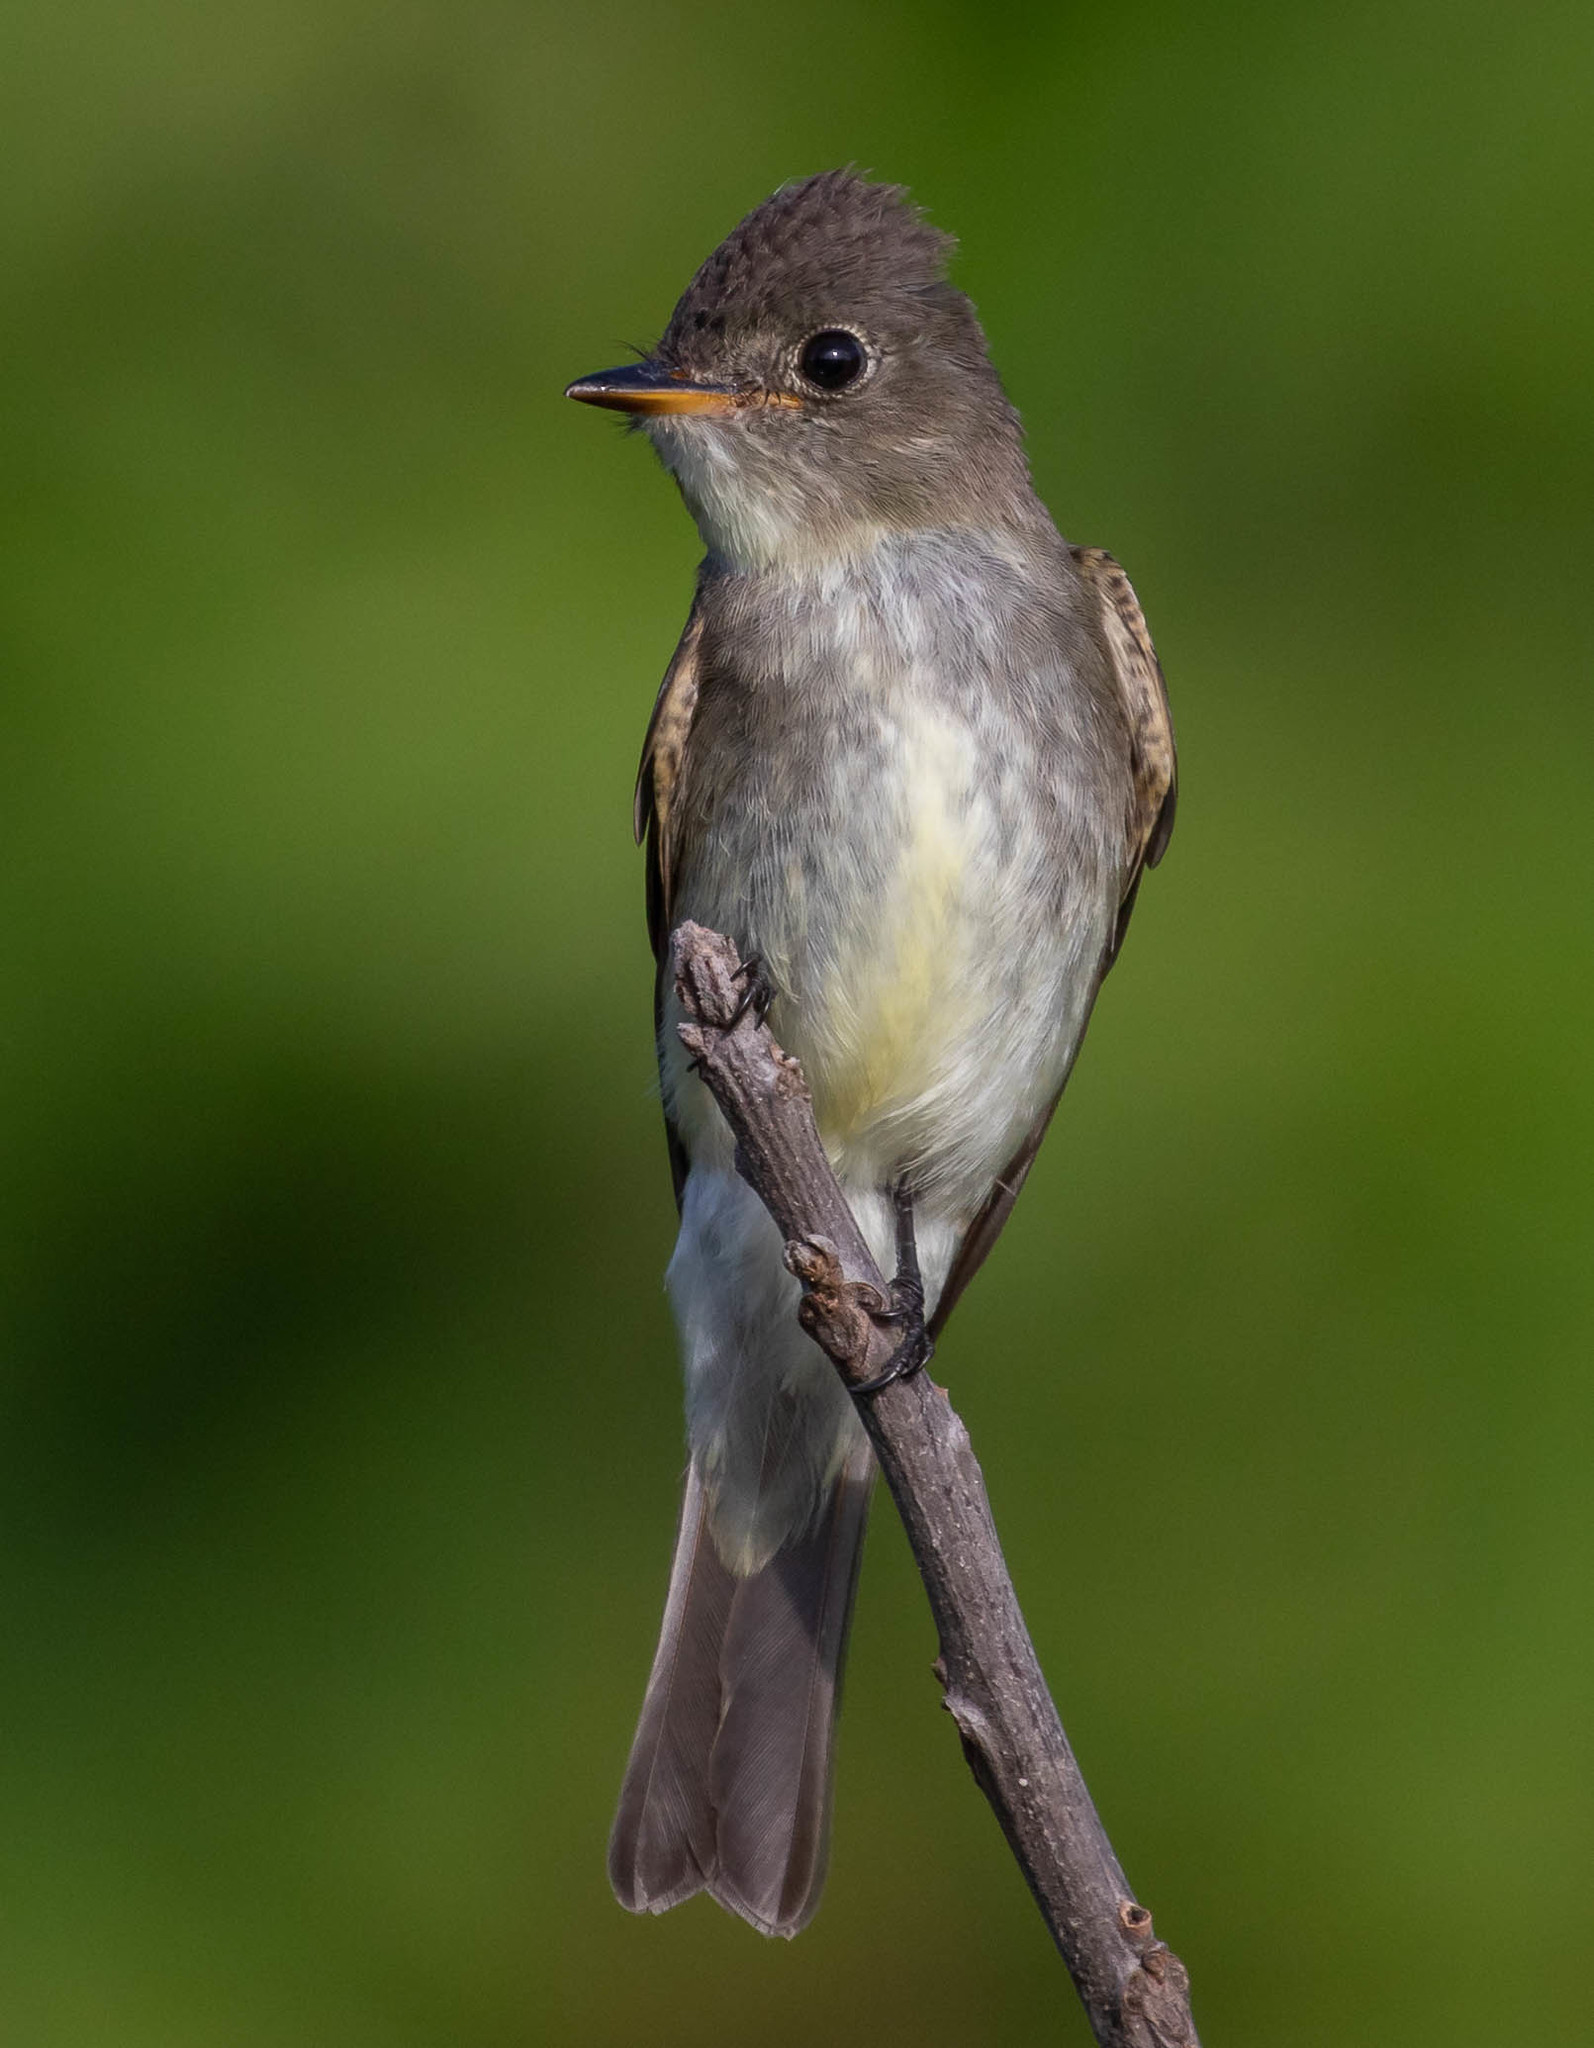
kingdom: Animalia
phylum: Chordata
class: Aves
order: Passeriformes
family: Tyrannidae
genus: Contopus
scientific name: Contopus virens
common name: Eastern wood-pewee
